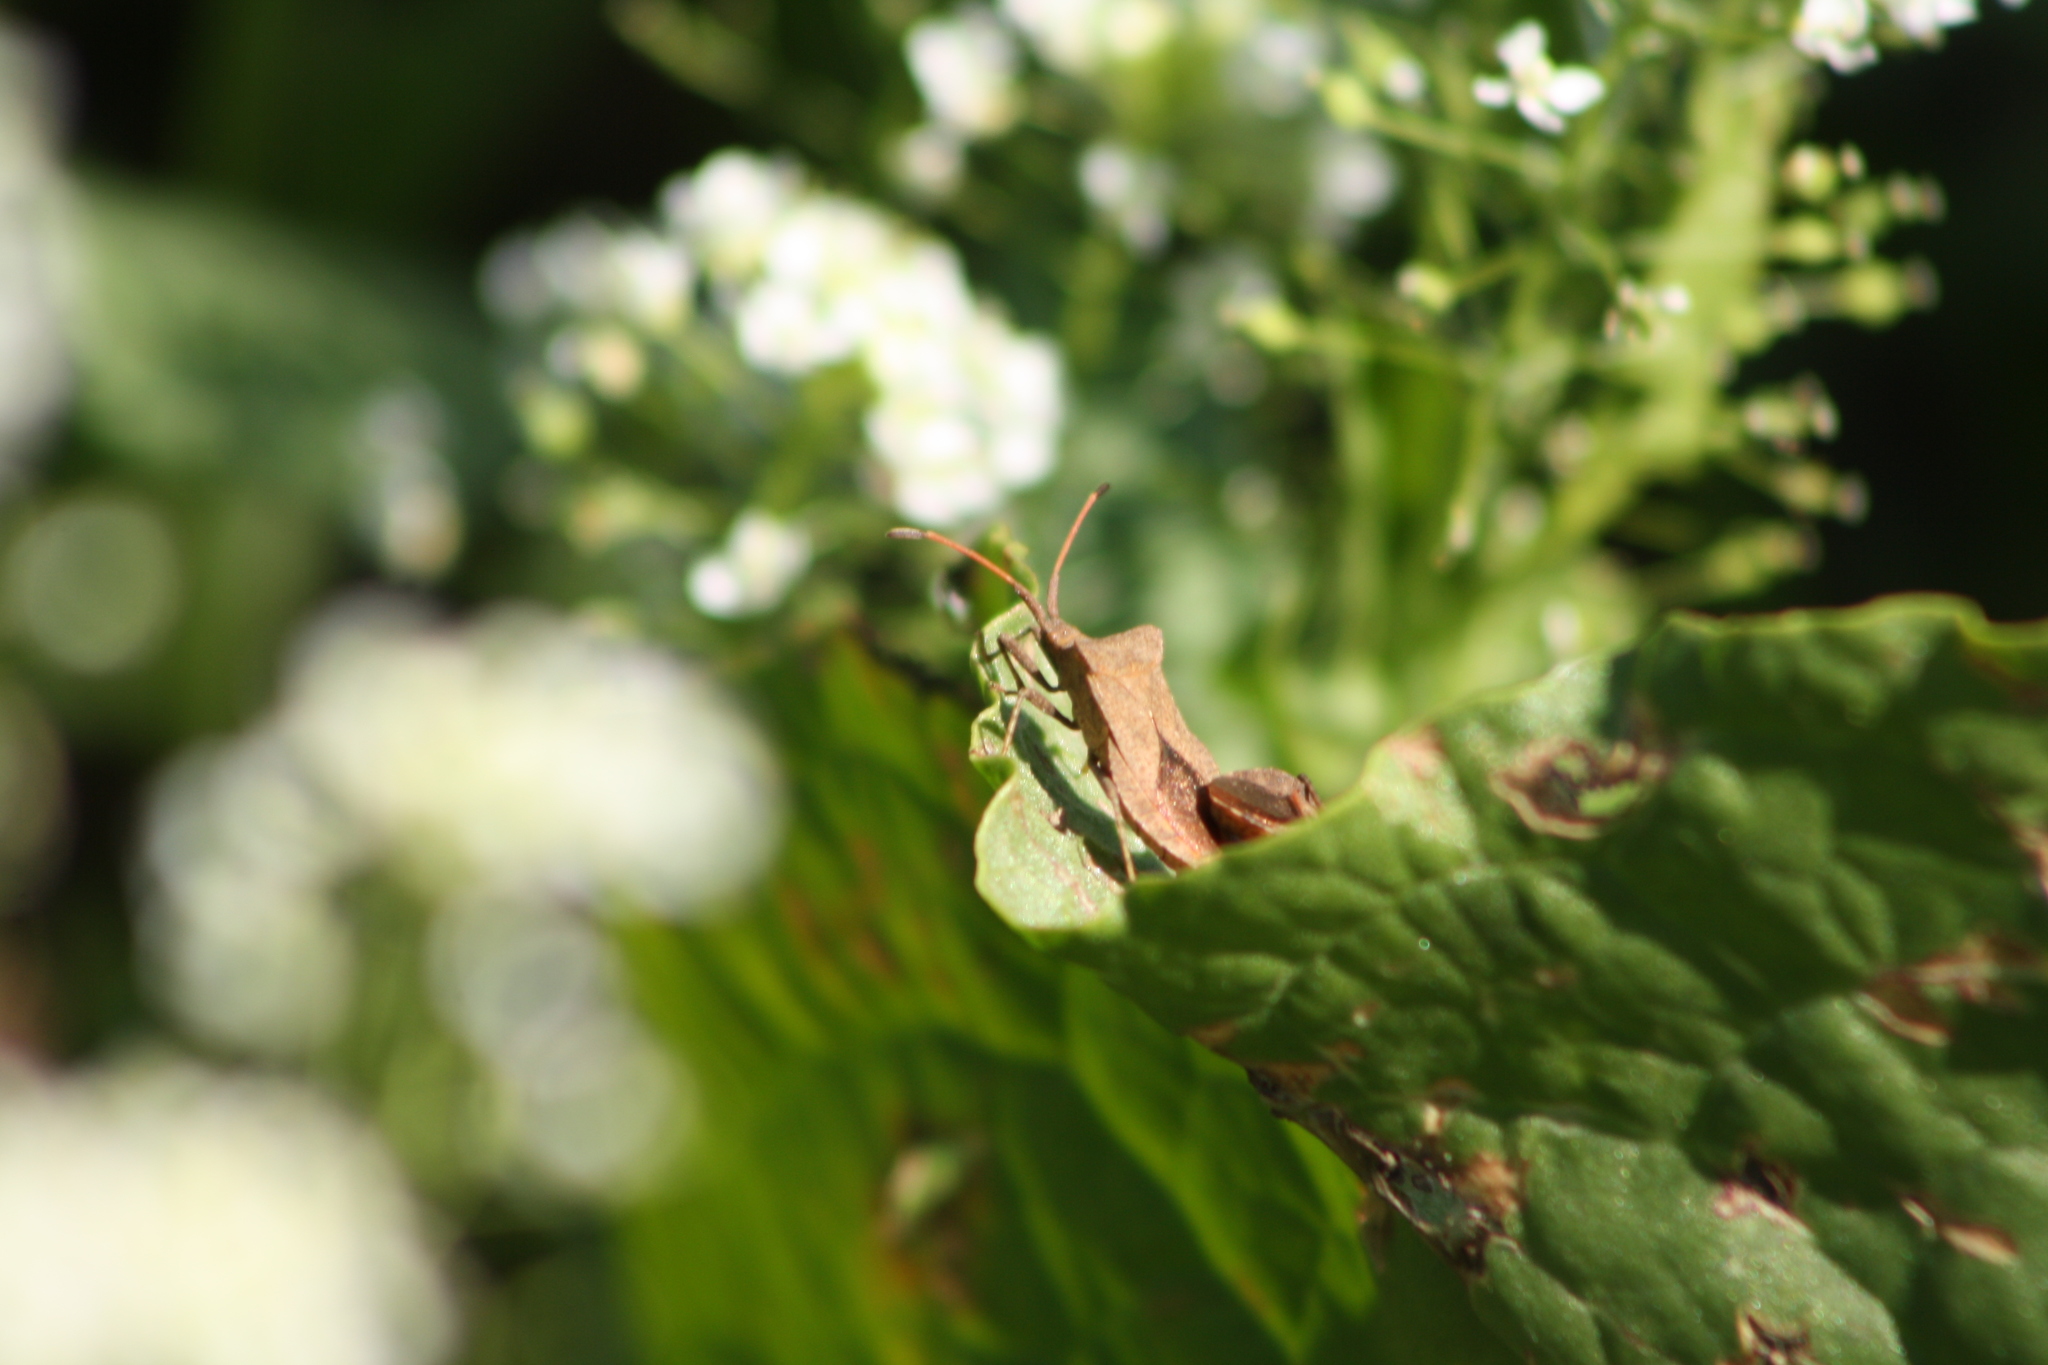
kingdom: Animalia
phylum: Arthropoda
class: Insecta
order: Hemiptera
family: Coreidae
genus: Coreus
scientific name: Coreus marginatus
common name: Dock bug
